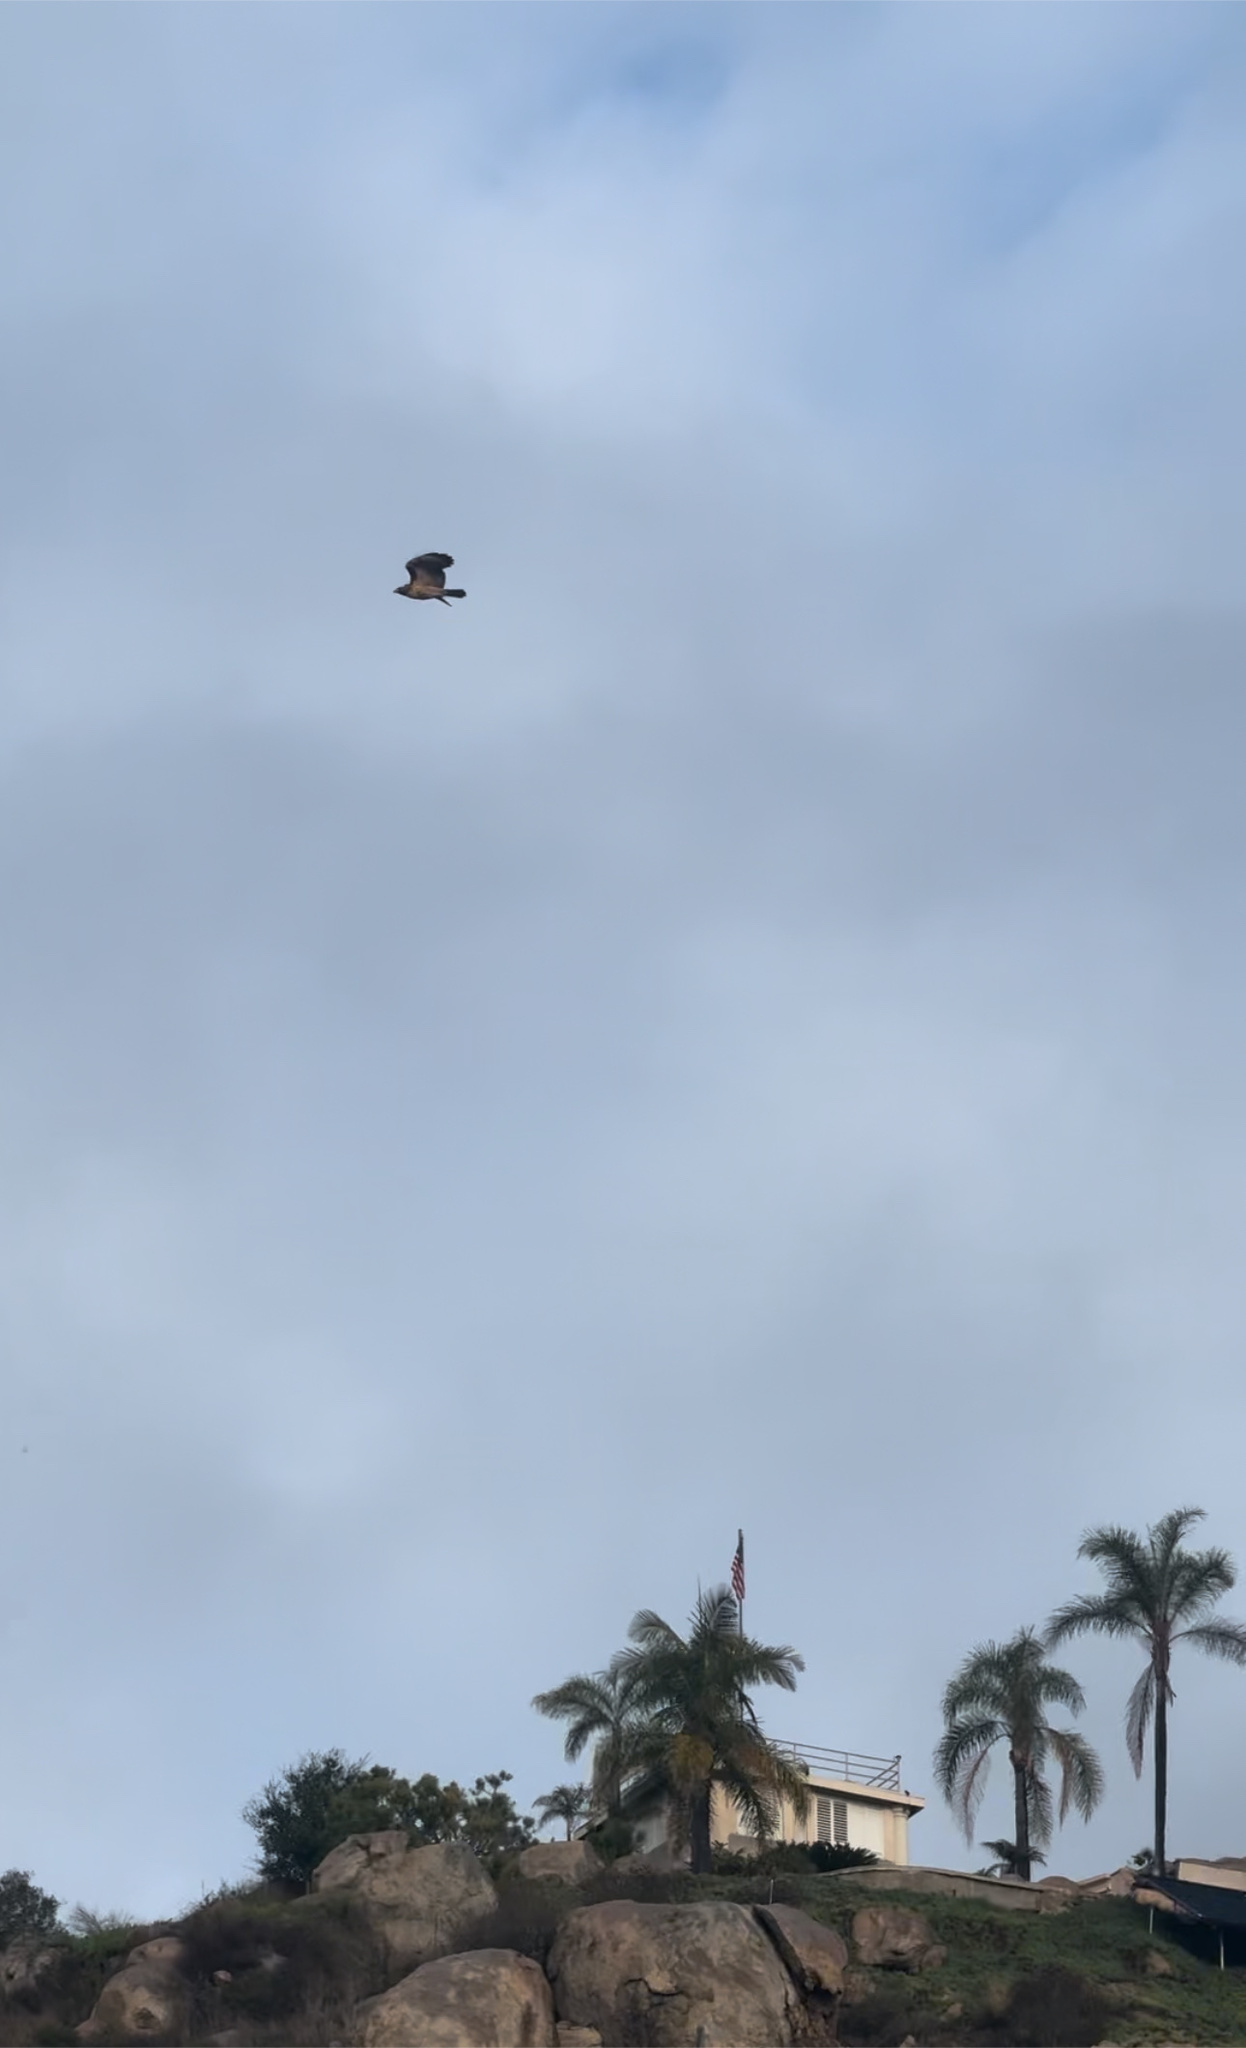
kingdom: Animalia
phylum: Chordata
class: Aves
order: Accipitriformes
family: Accipitridae
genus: Buteo
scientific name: Buteo jamaicensis
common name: Red-tailed hawk
